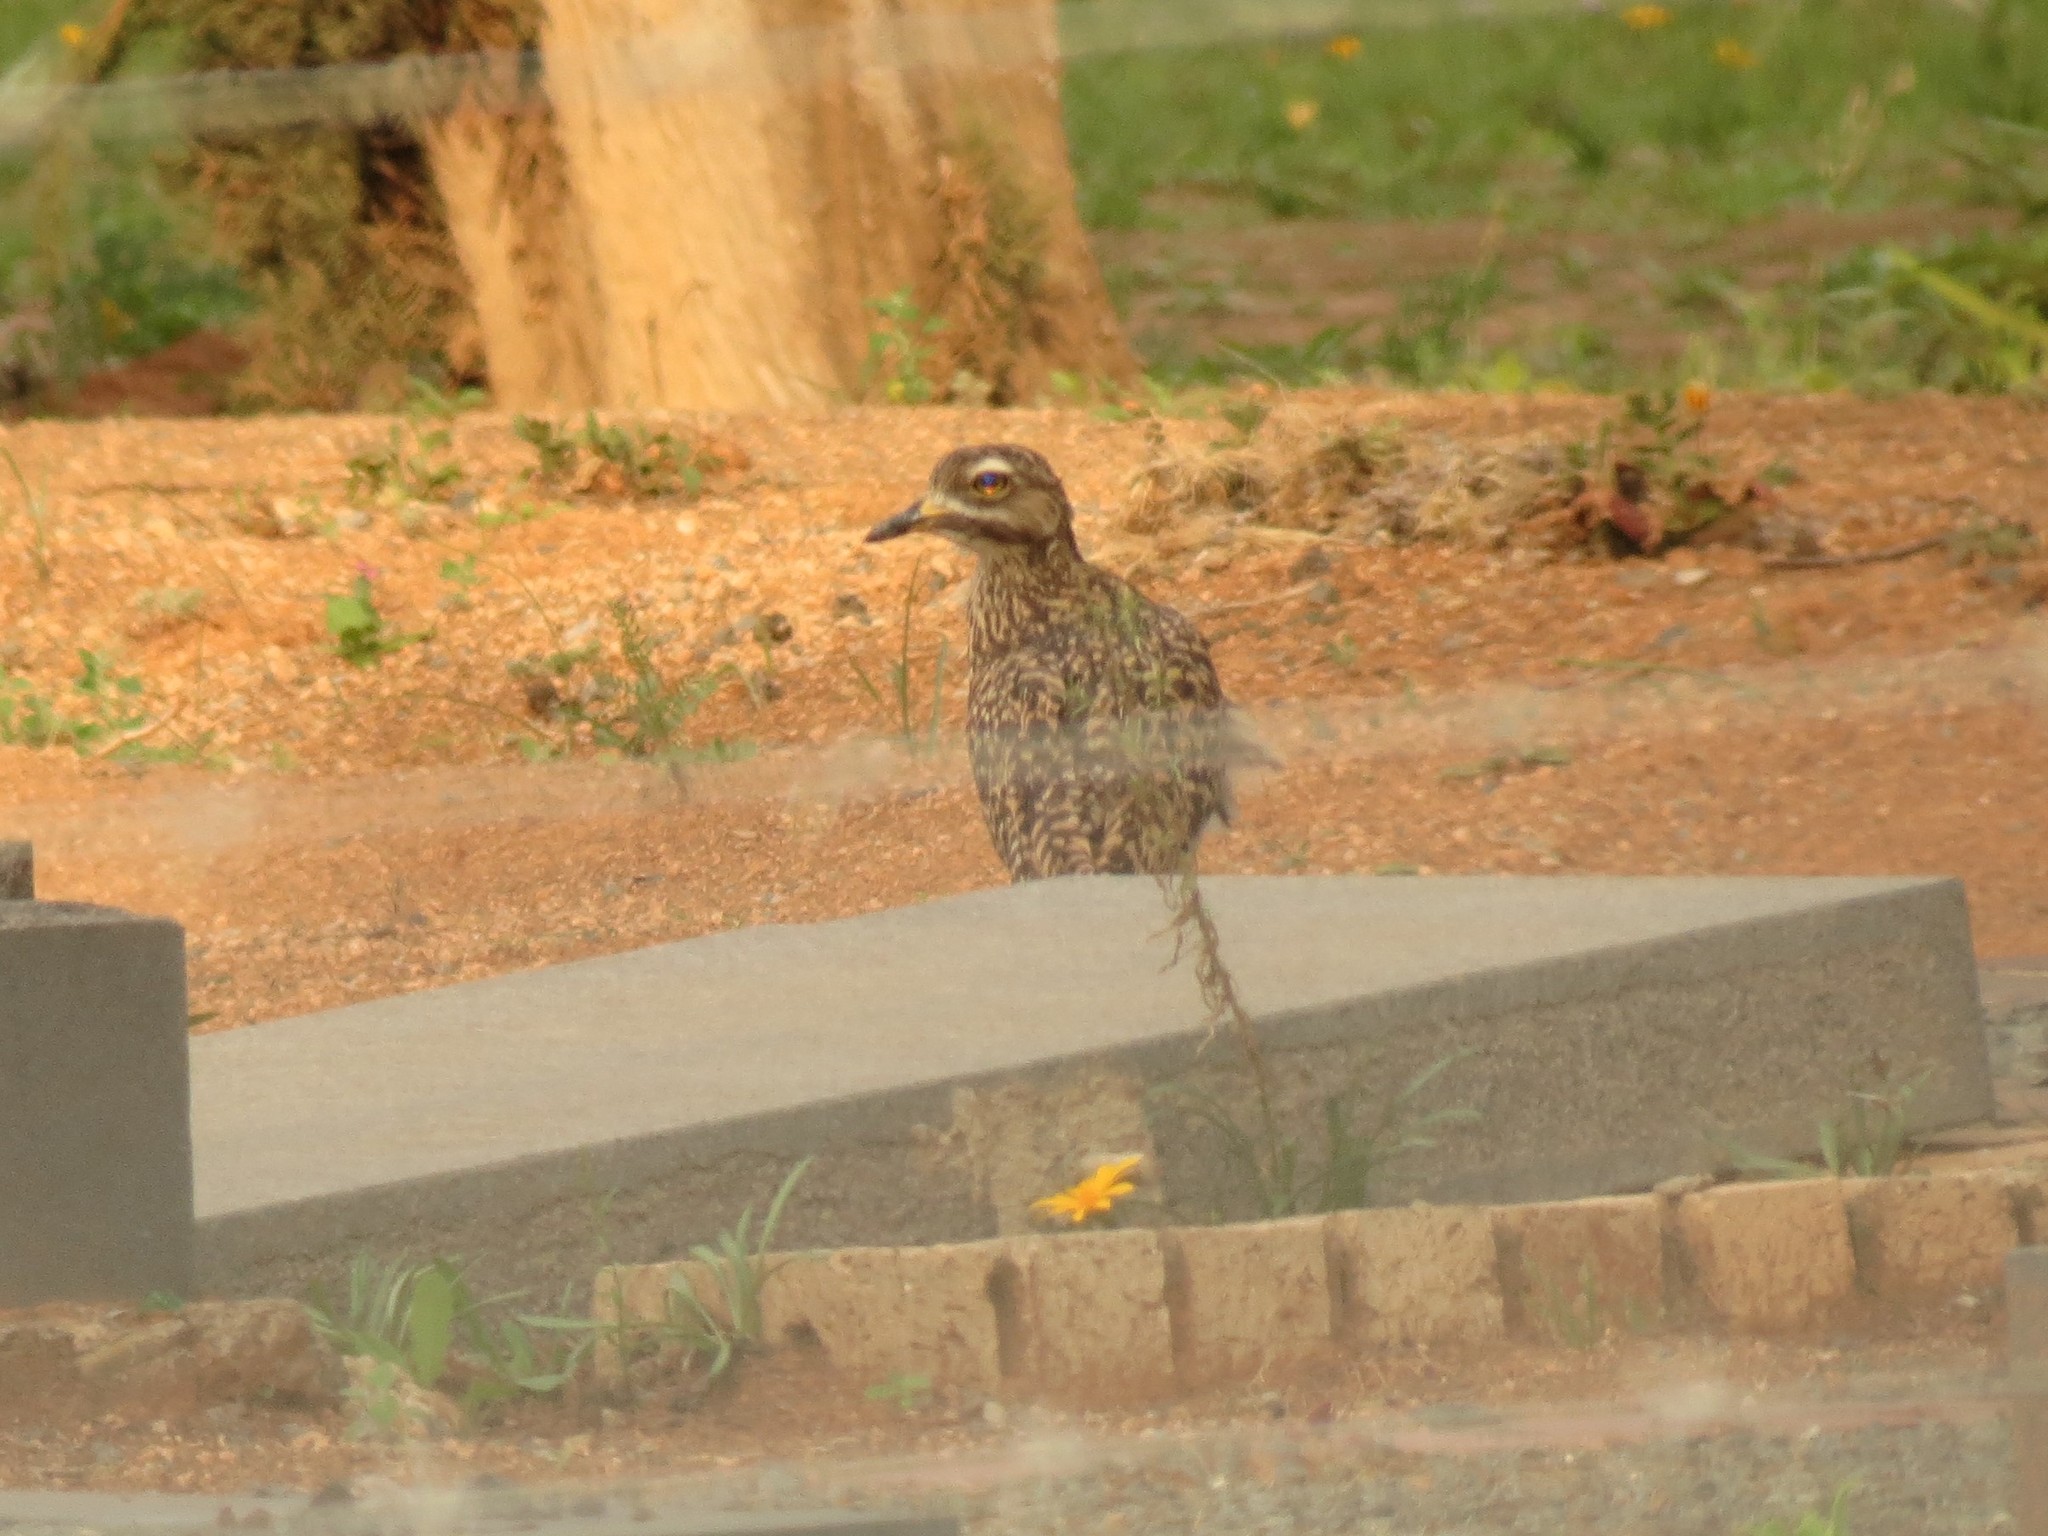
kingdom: Animalia
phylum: Chordata
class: Aves
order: Charadriiformes
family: Burhinidae
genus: Burhinus
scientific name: Burhinus capensis
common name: Spotted thick-knee
